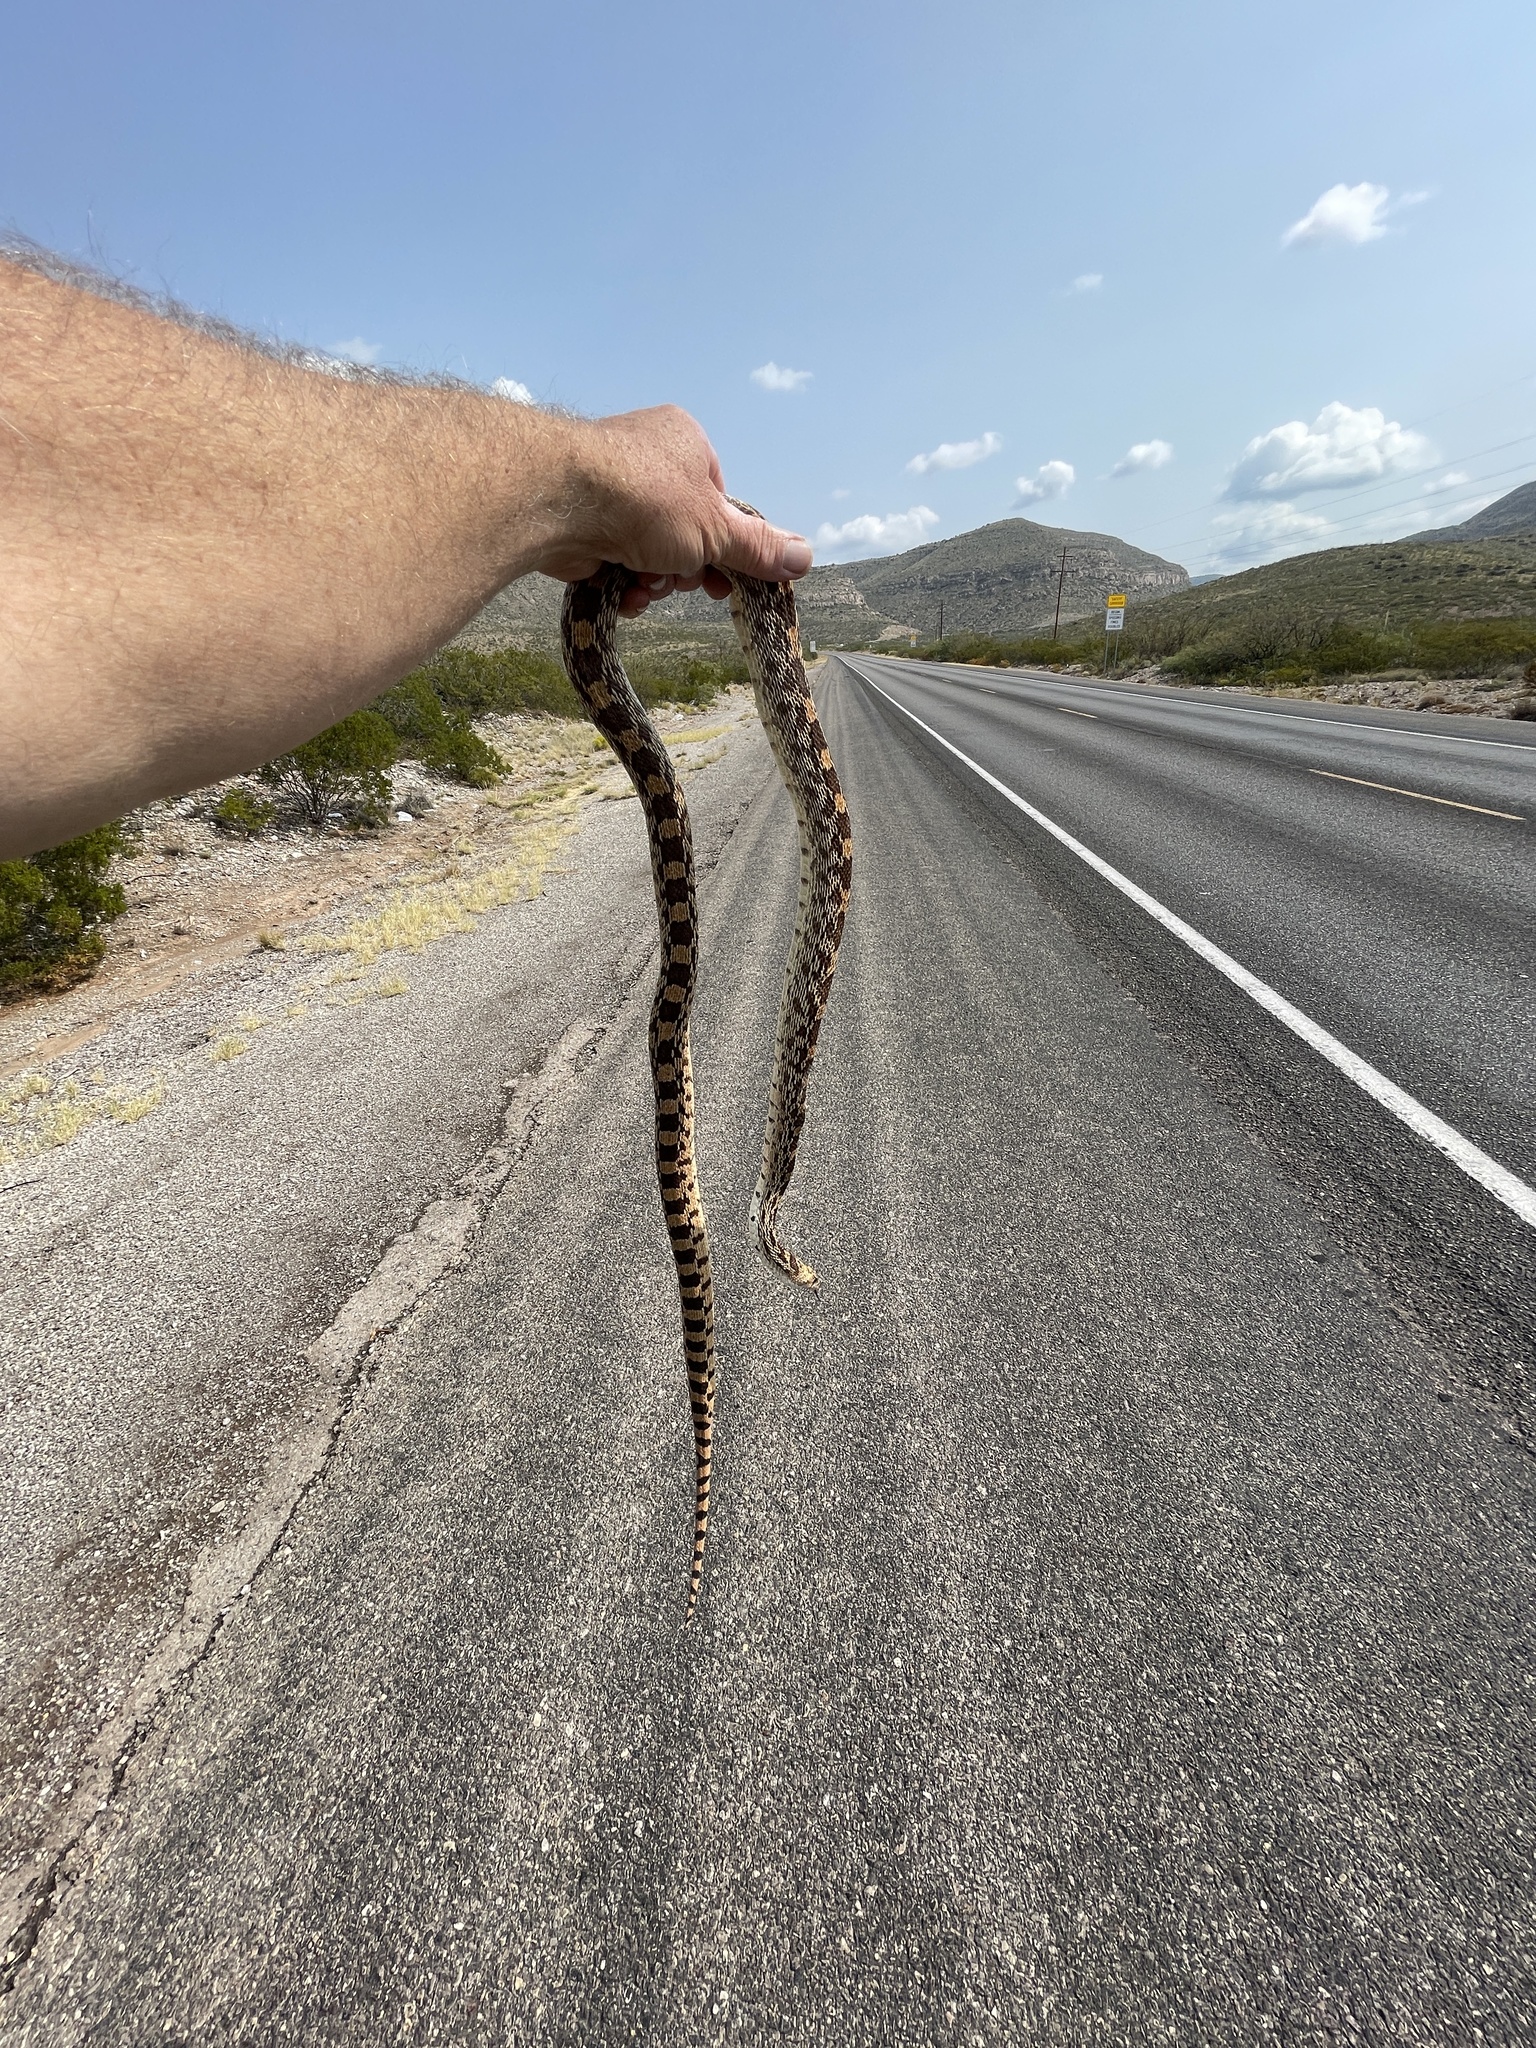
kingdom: Animalia
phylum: Chordata
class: Squamata
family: Colubridae
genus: Pituophis
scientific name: Pituophis catenifer
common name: Gopher snake
